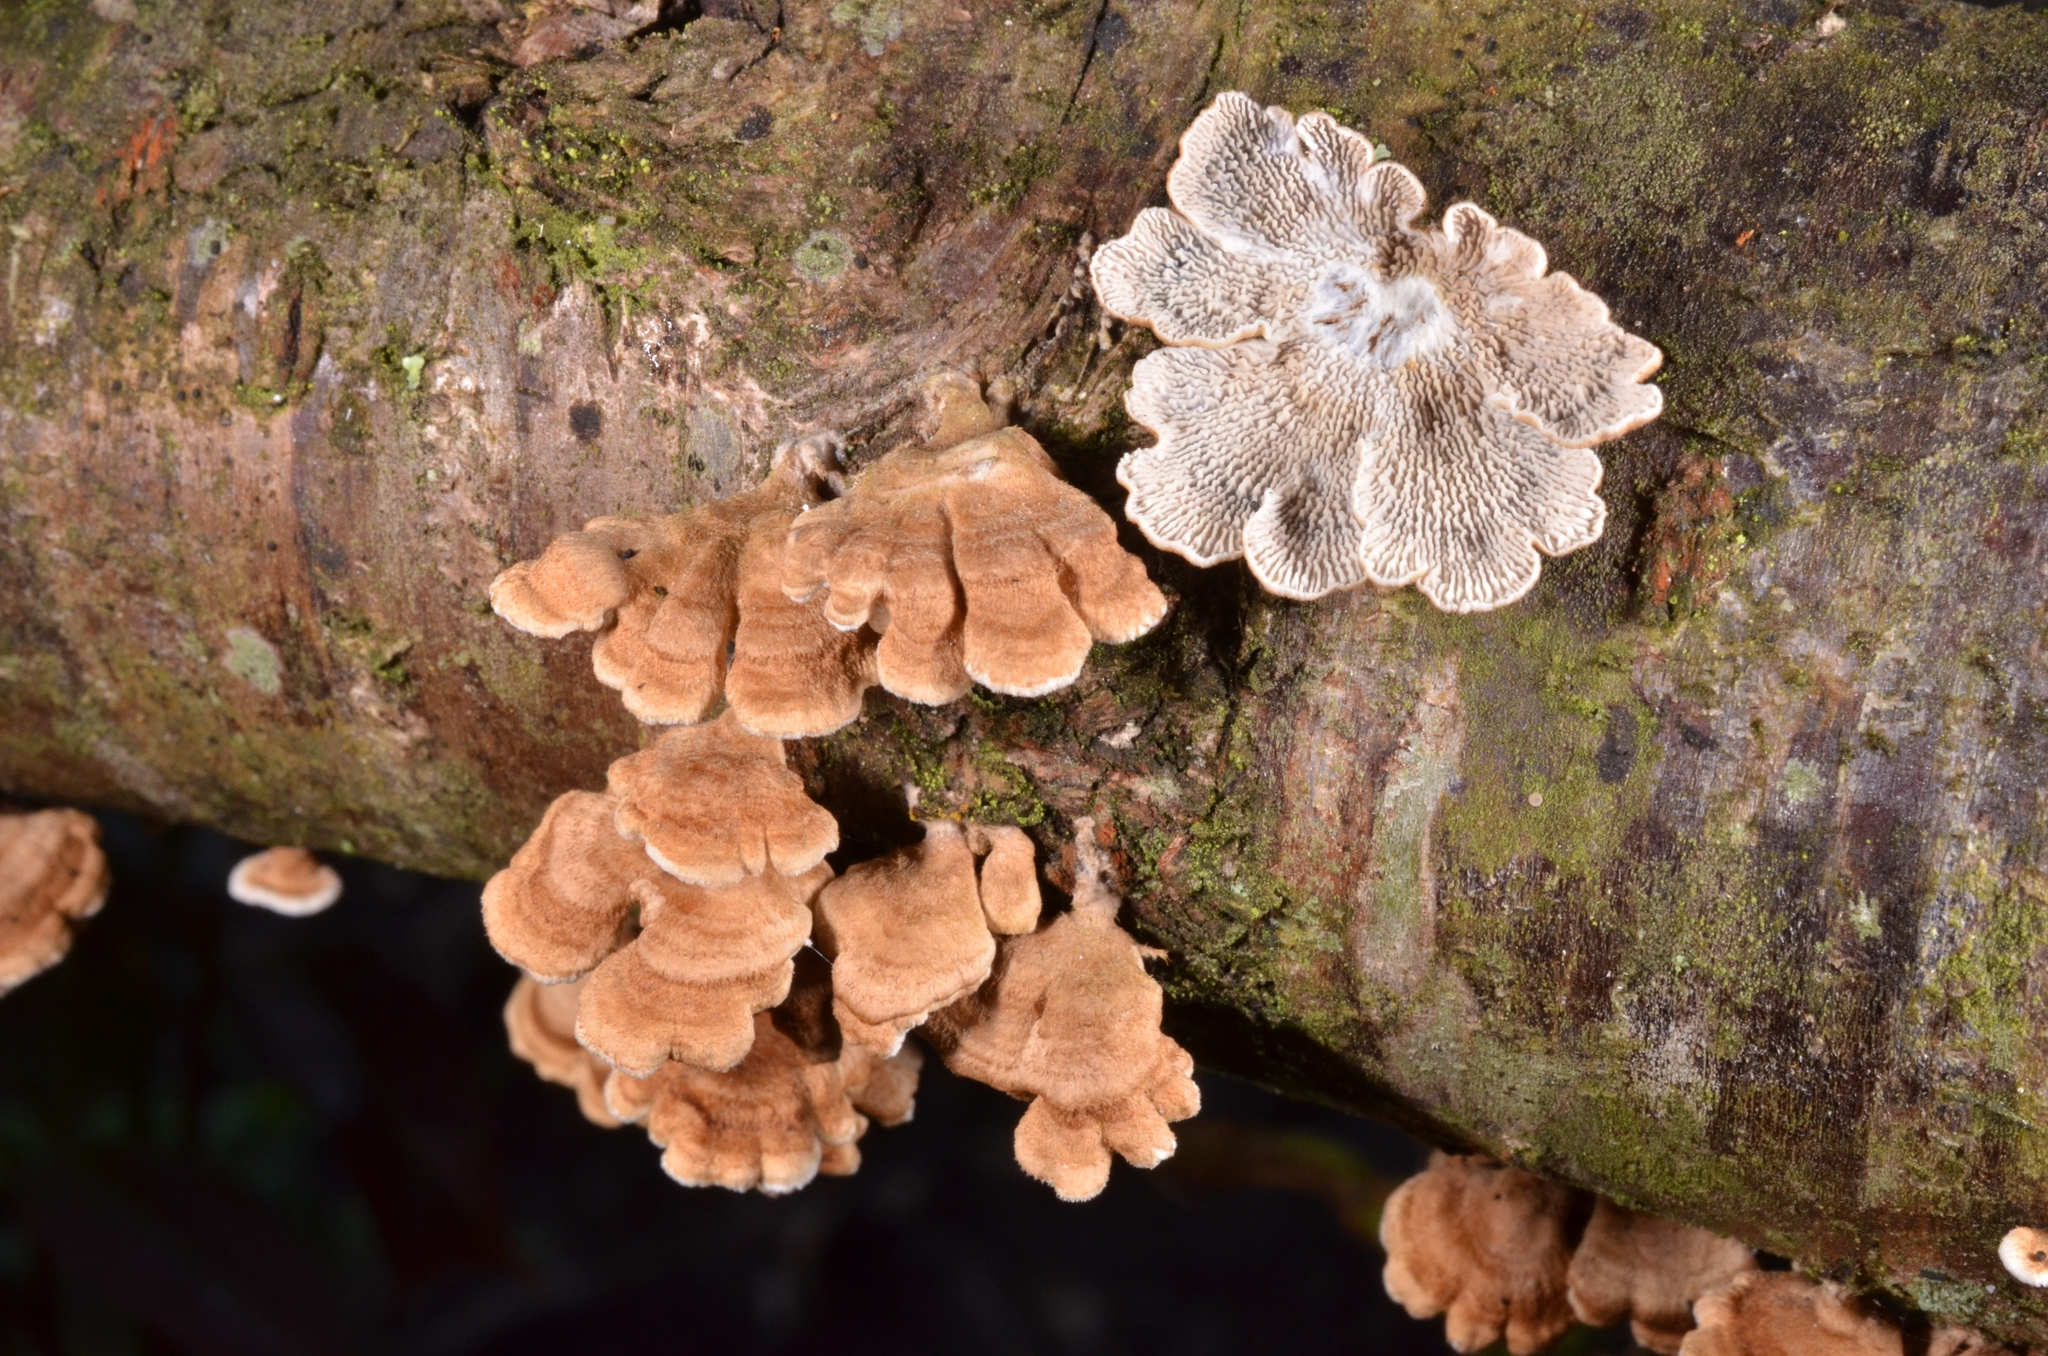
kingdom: Fungi
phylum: Basidiomycota
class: Agaricomycetes
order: Amylocorticiales
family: Amylocorticiaceae
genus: Plicaturopsis
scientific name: Plicaturopsis crispa
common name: Crimped gill
